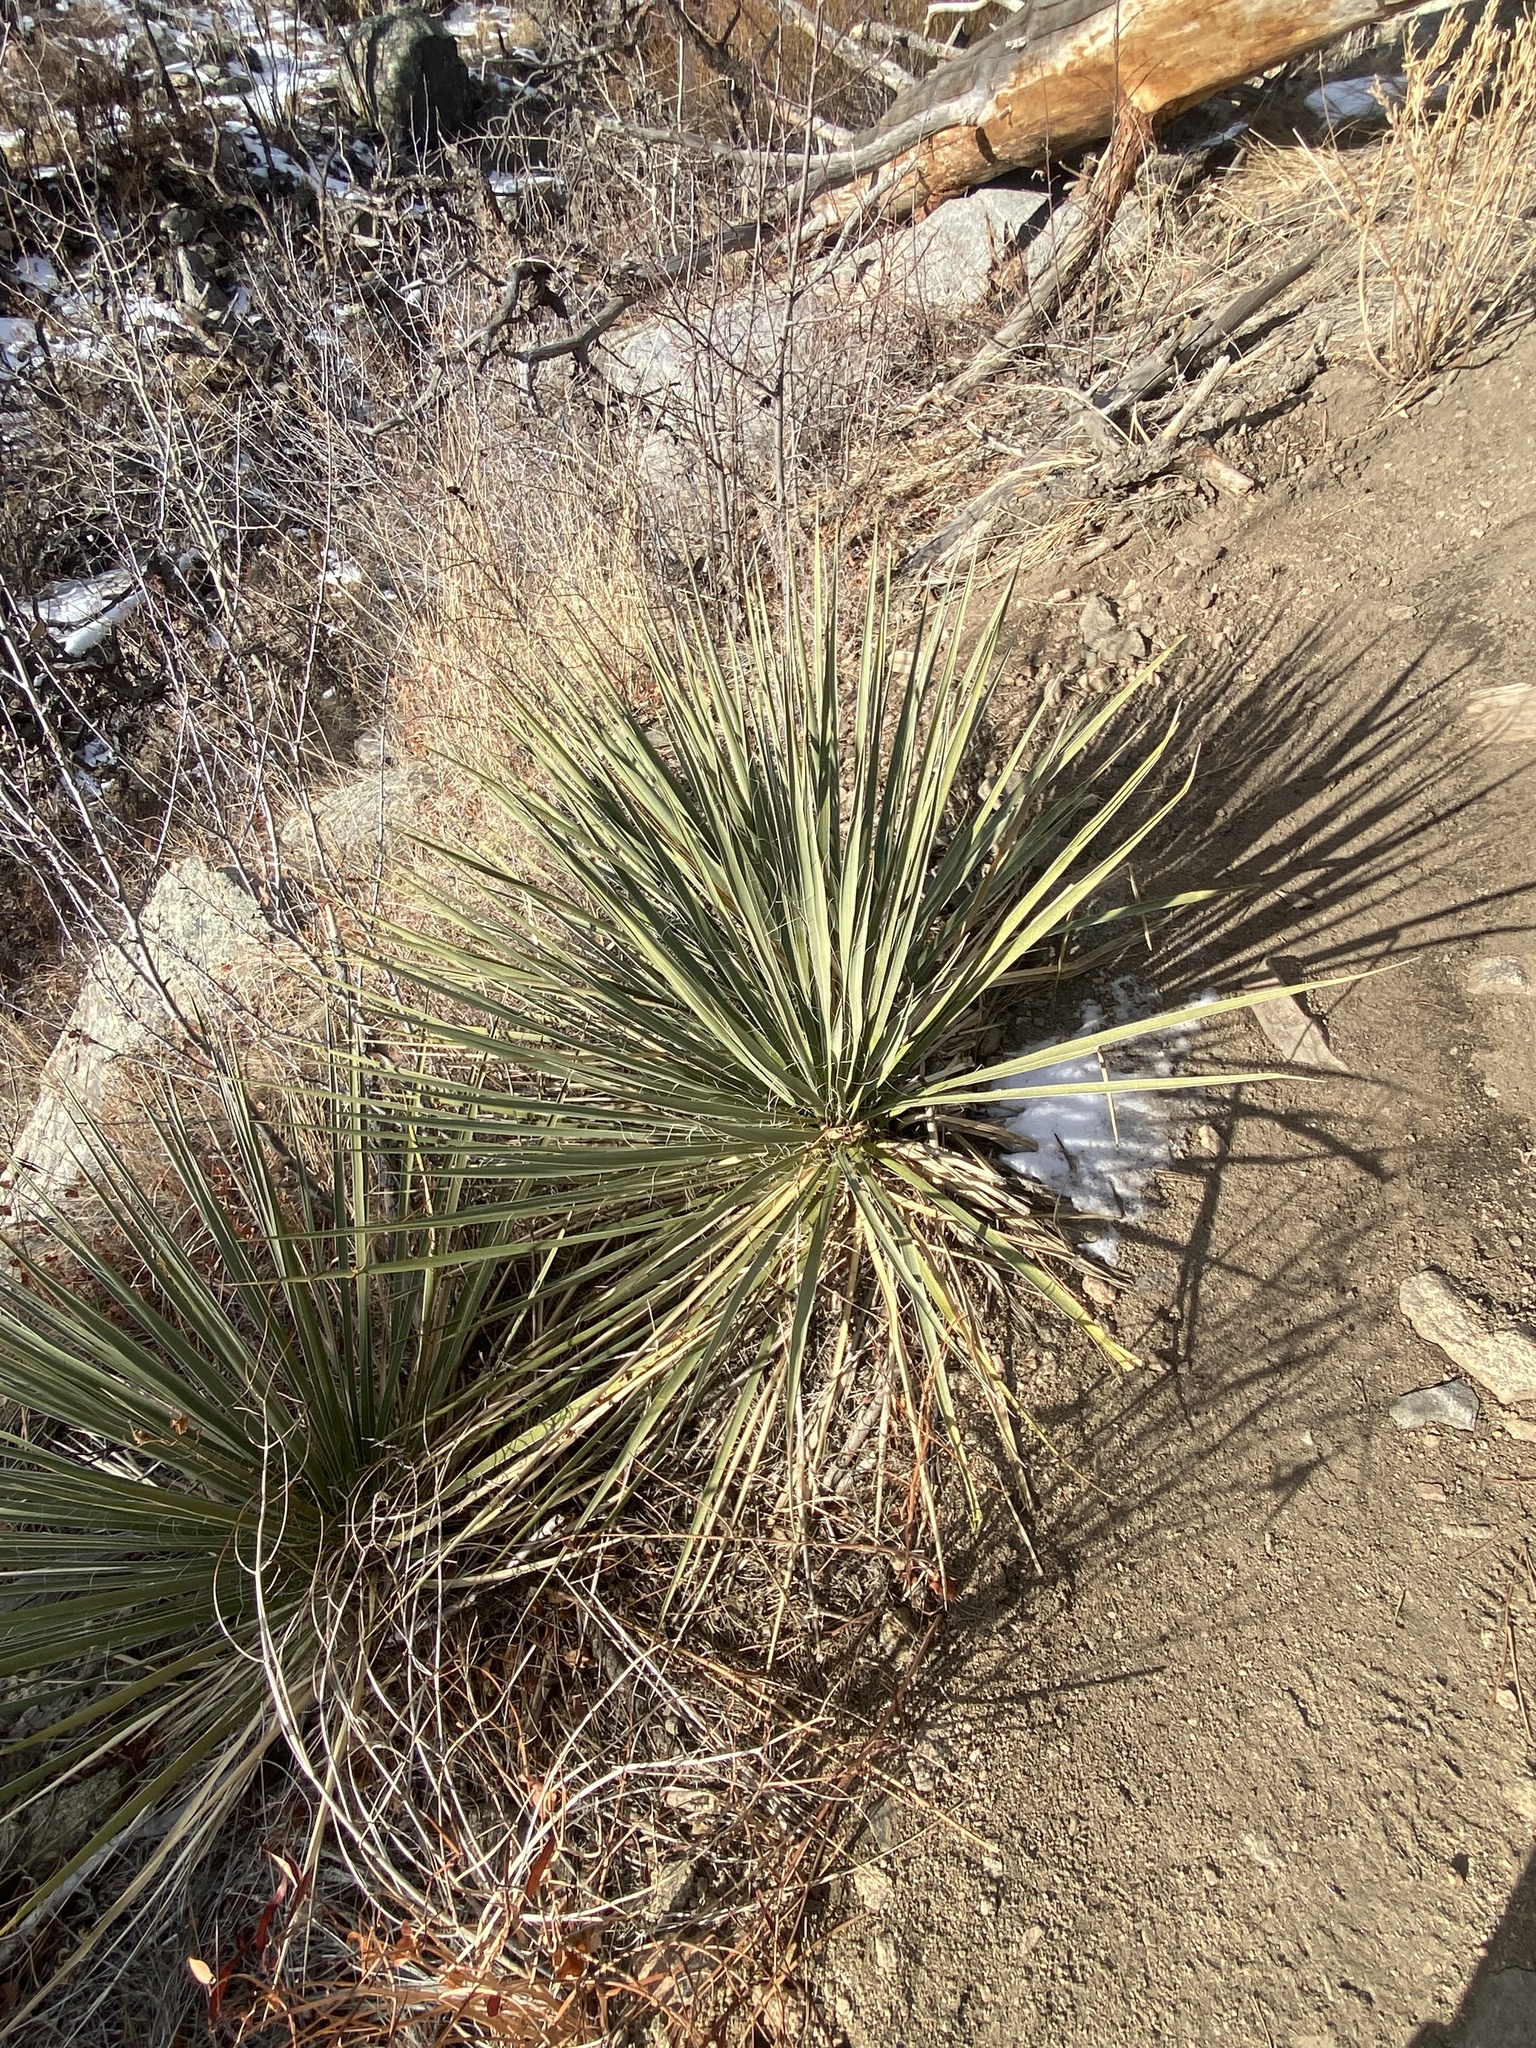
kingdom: Plantae
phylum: Tracheophyta
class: Liliopsida
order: Asparagales
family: Asparagaceae
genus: Yucca
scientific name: Yucca glauca
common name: Great plains yucca
